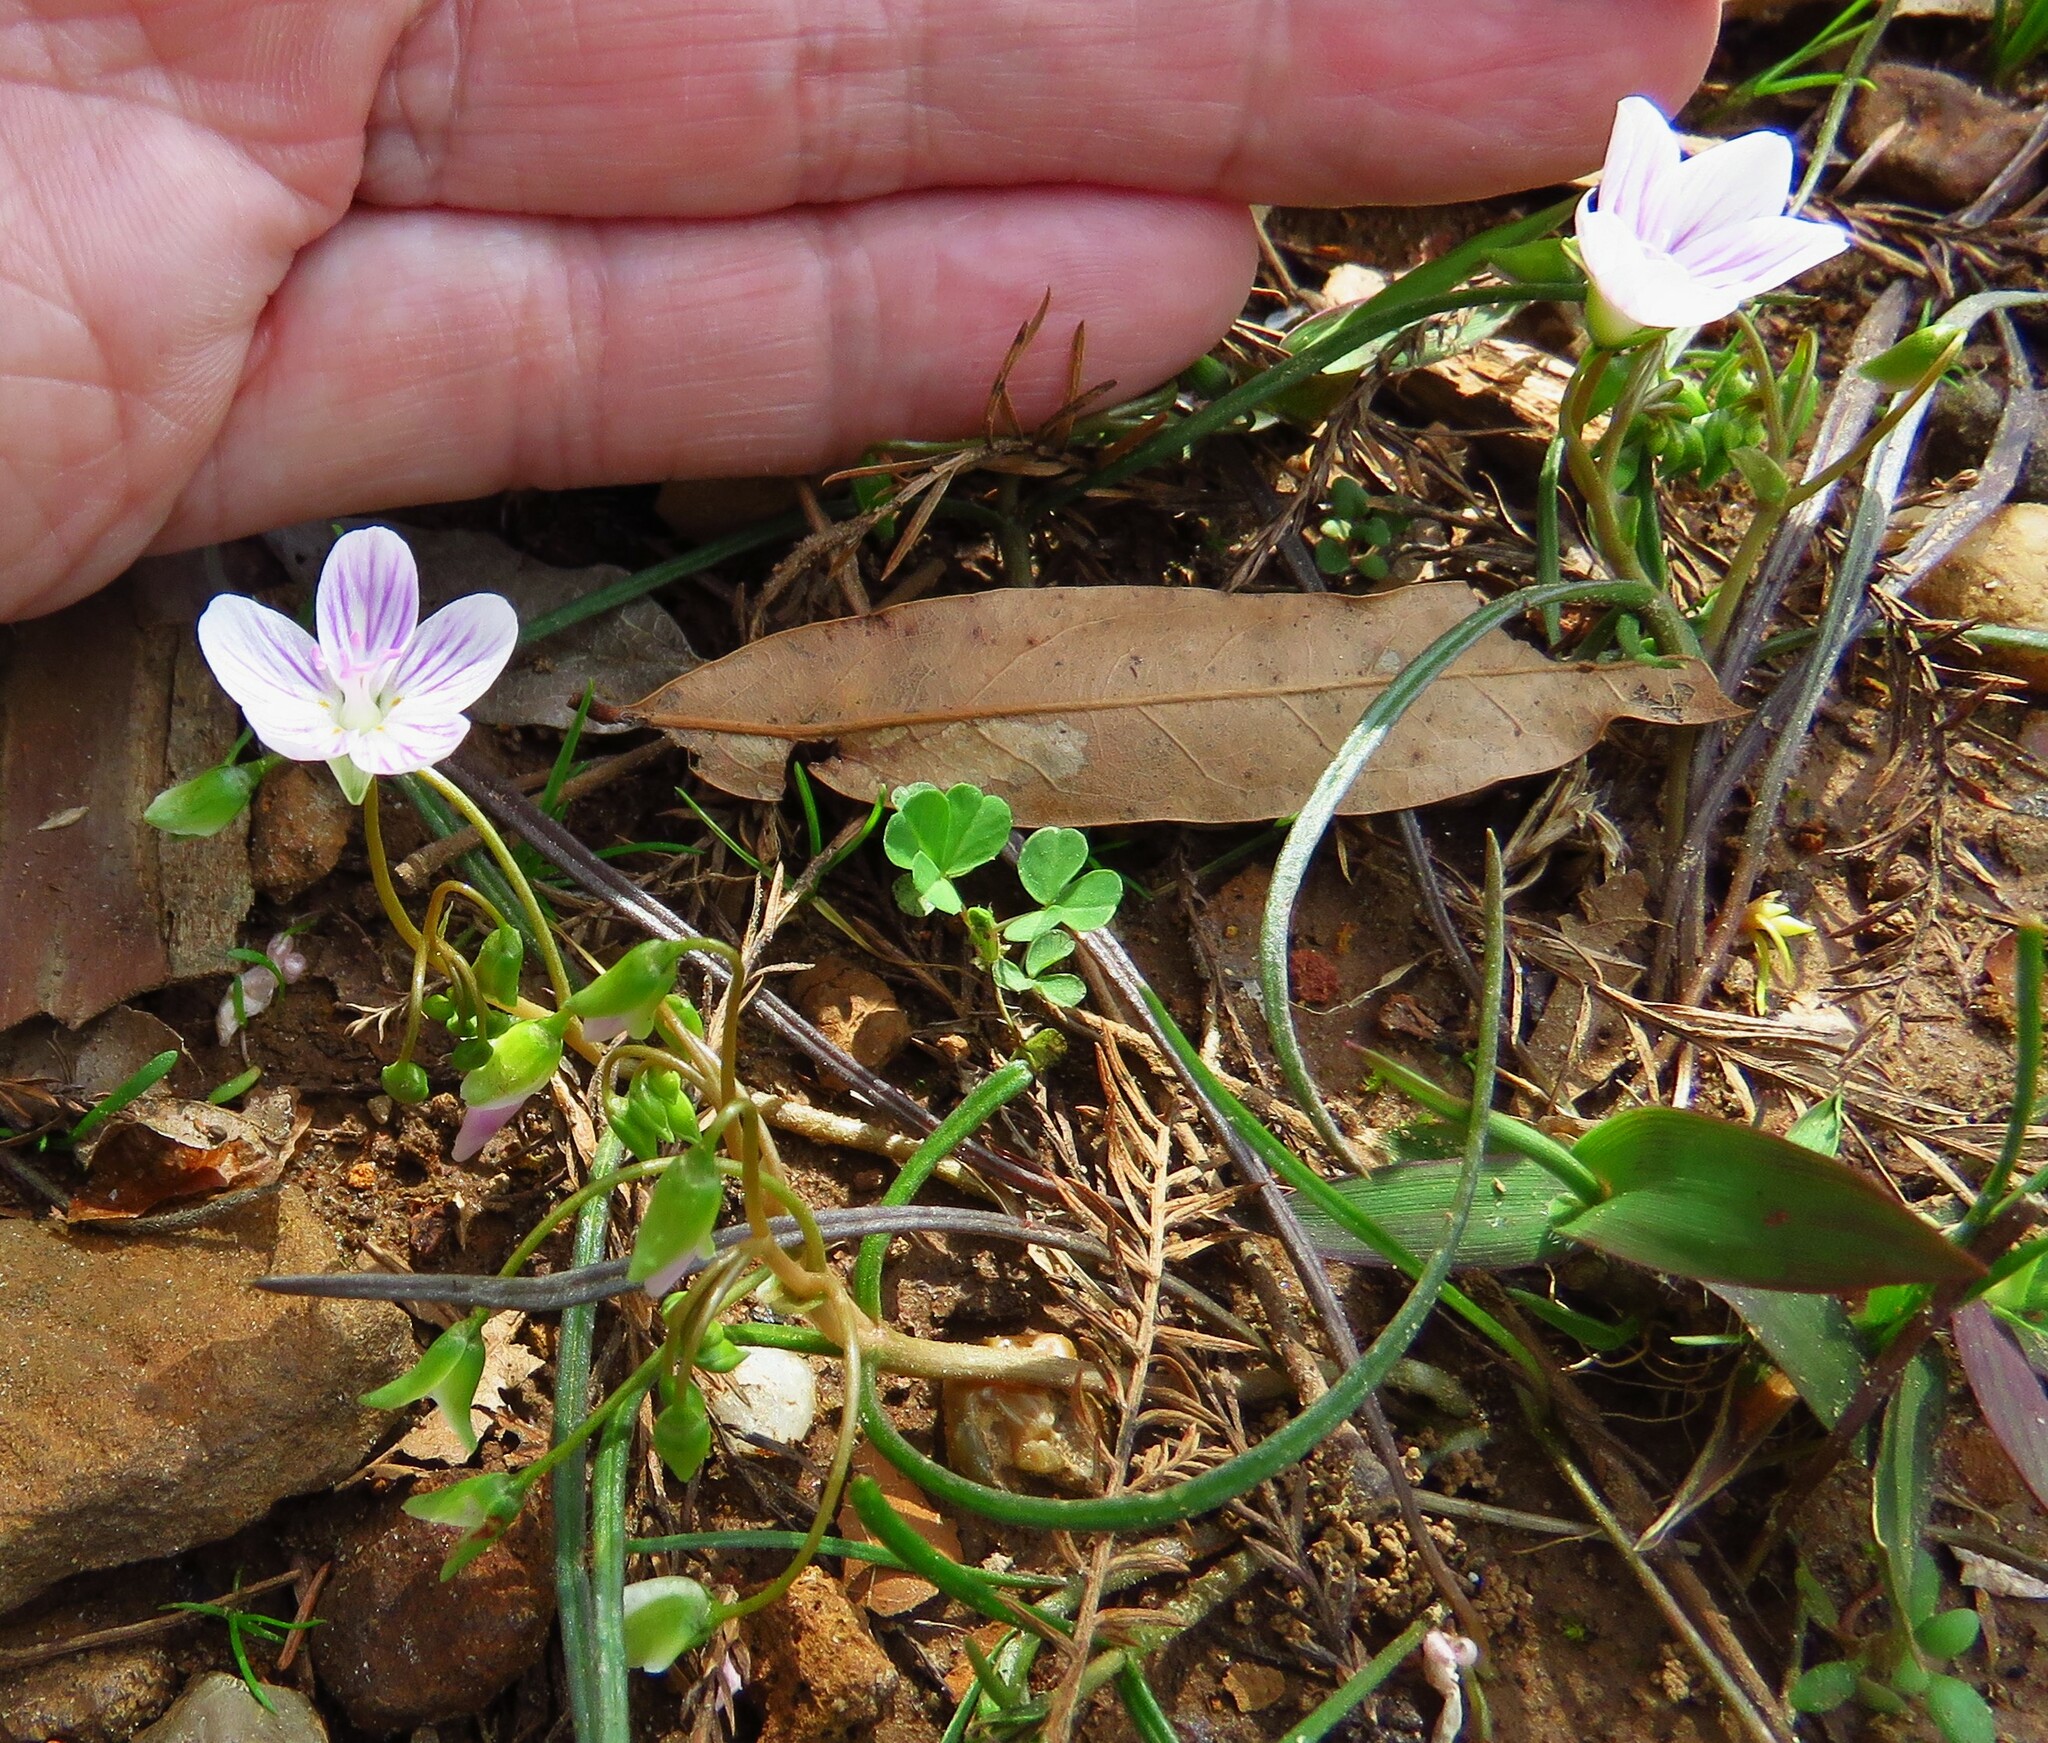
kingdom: Plantae
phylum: Tracheophyta
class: Magnoliopsida
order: Caryophyllales
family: Montiaceae
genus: Claytonia
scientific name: Claytonia virginica
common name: Virginia springbeauty
